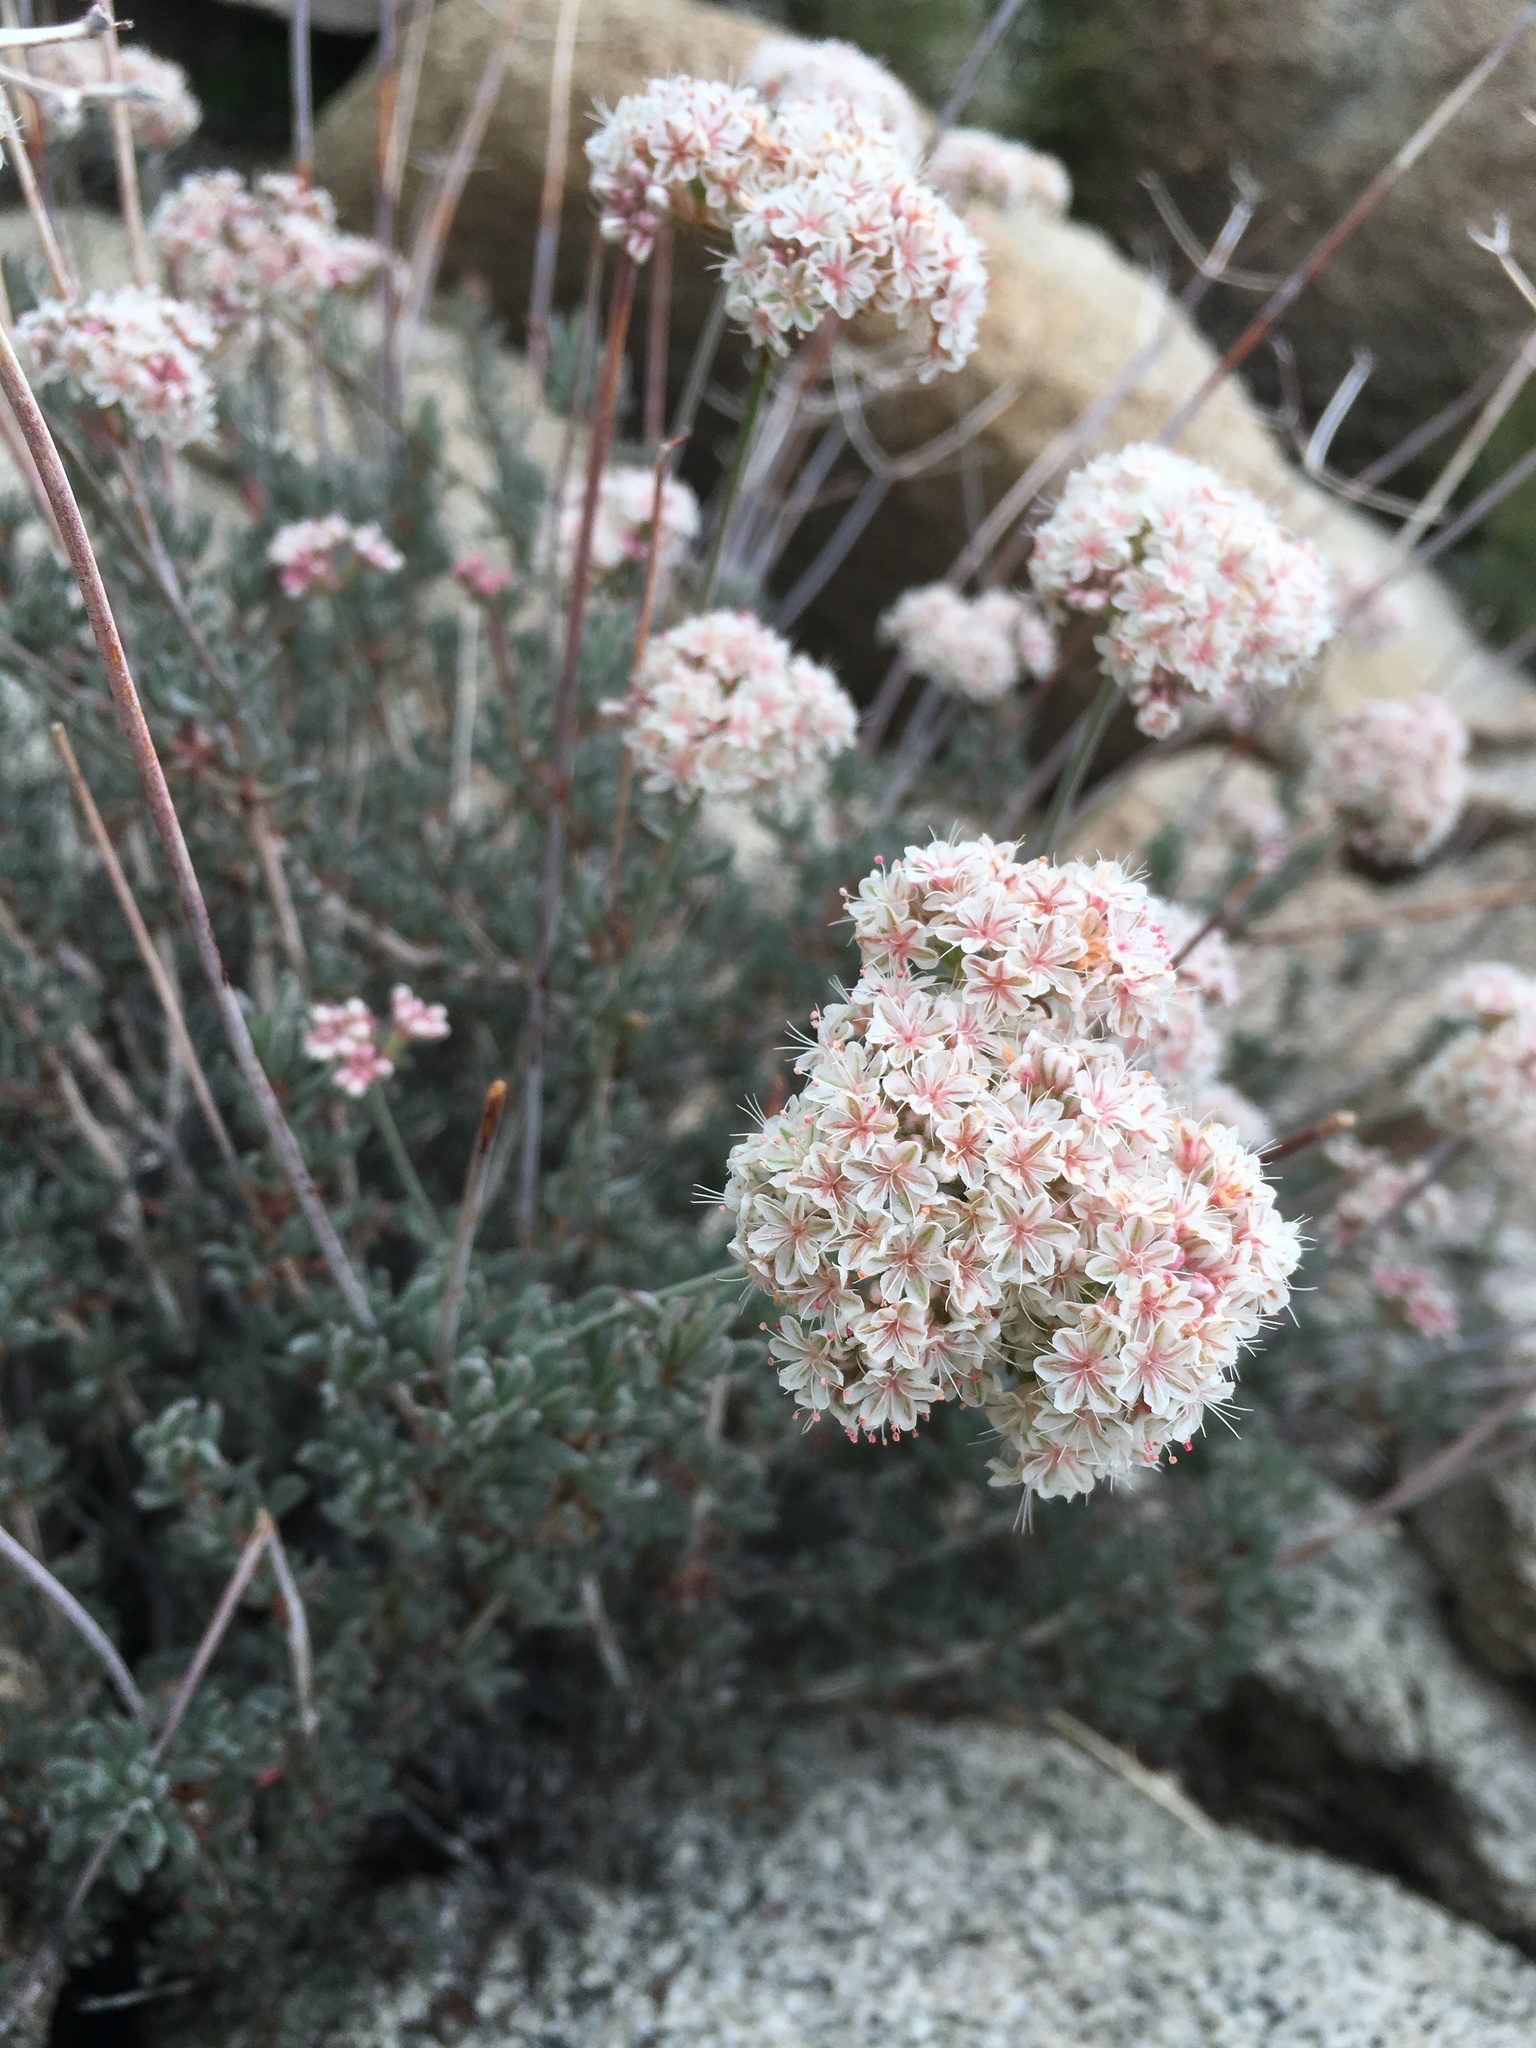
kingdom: Plantae
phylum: Tracheophyta
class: Magnoliopsida
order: Caryophyllales
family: Polygonaceae
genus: Eriogonum
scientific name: Eriogonum fasciculatum
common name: California wild buckwheat
